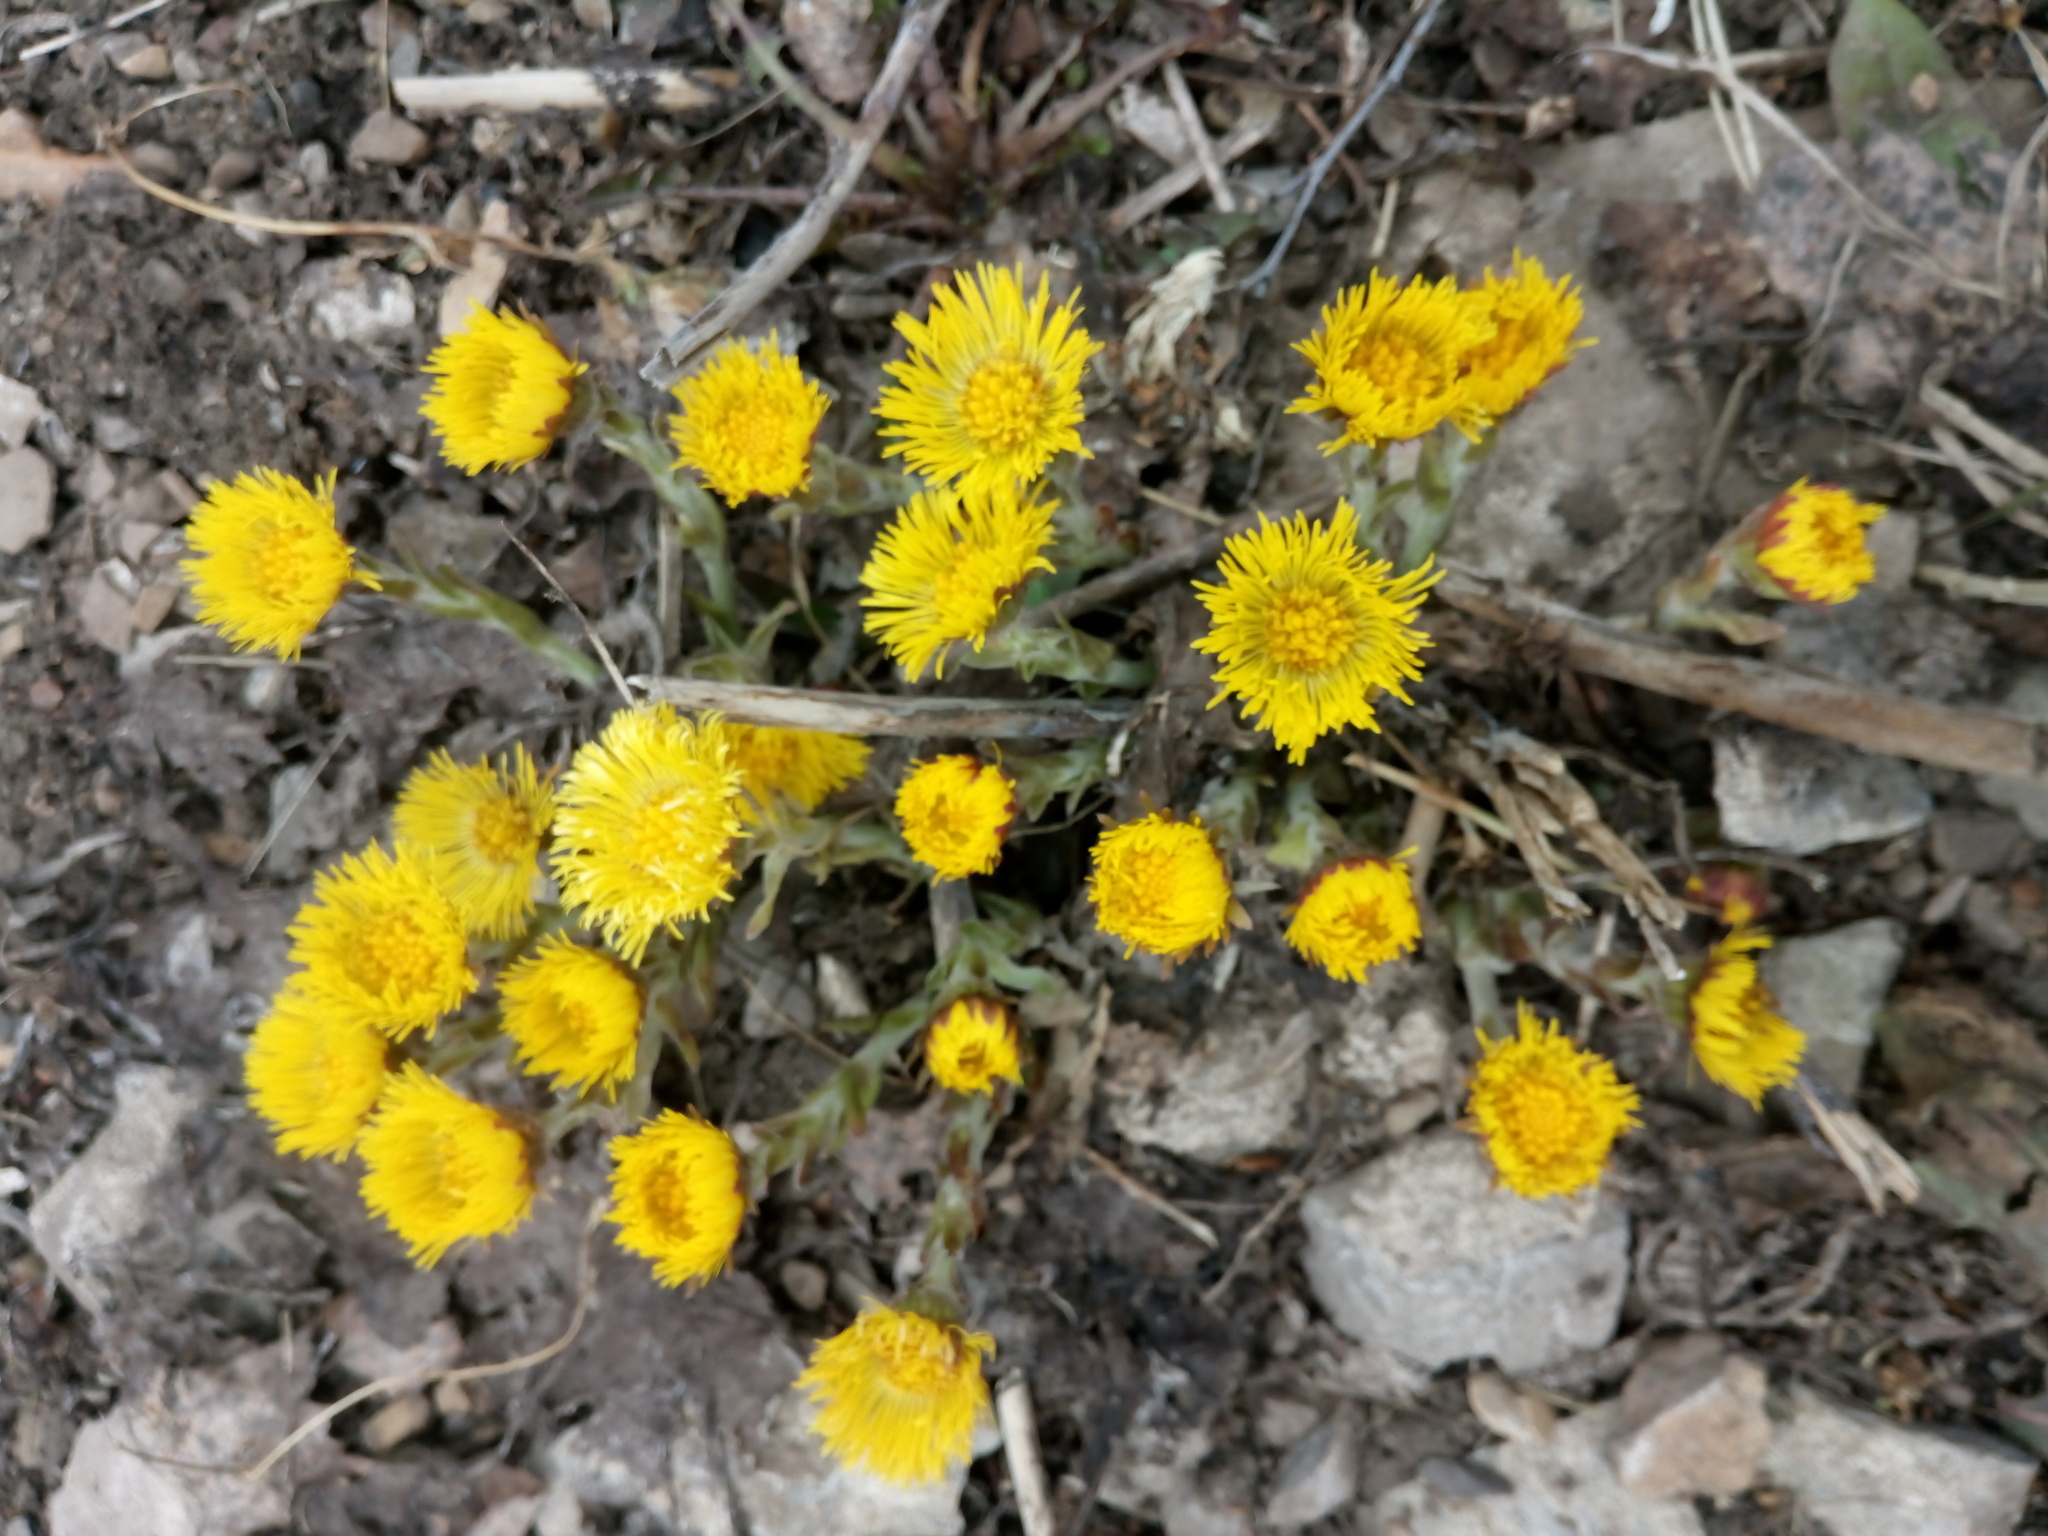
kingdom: Plantae
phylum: Tracheophyta
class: Magnoliopsida
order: Asterales
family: Asteraceae
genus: Tussilago
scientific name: Tussilago farfara
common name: Coltsfoot
